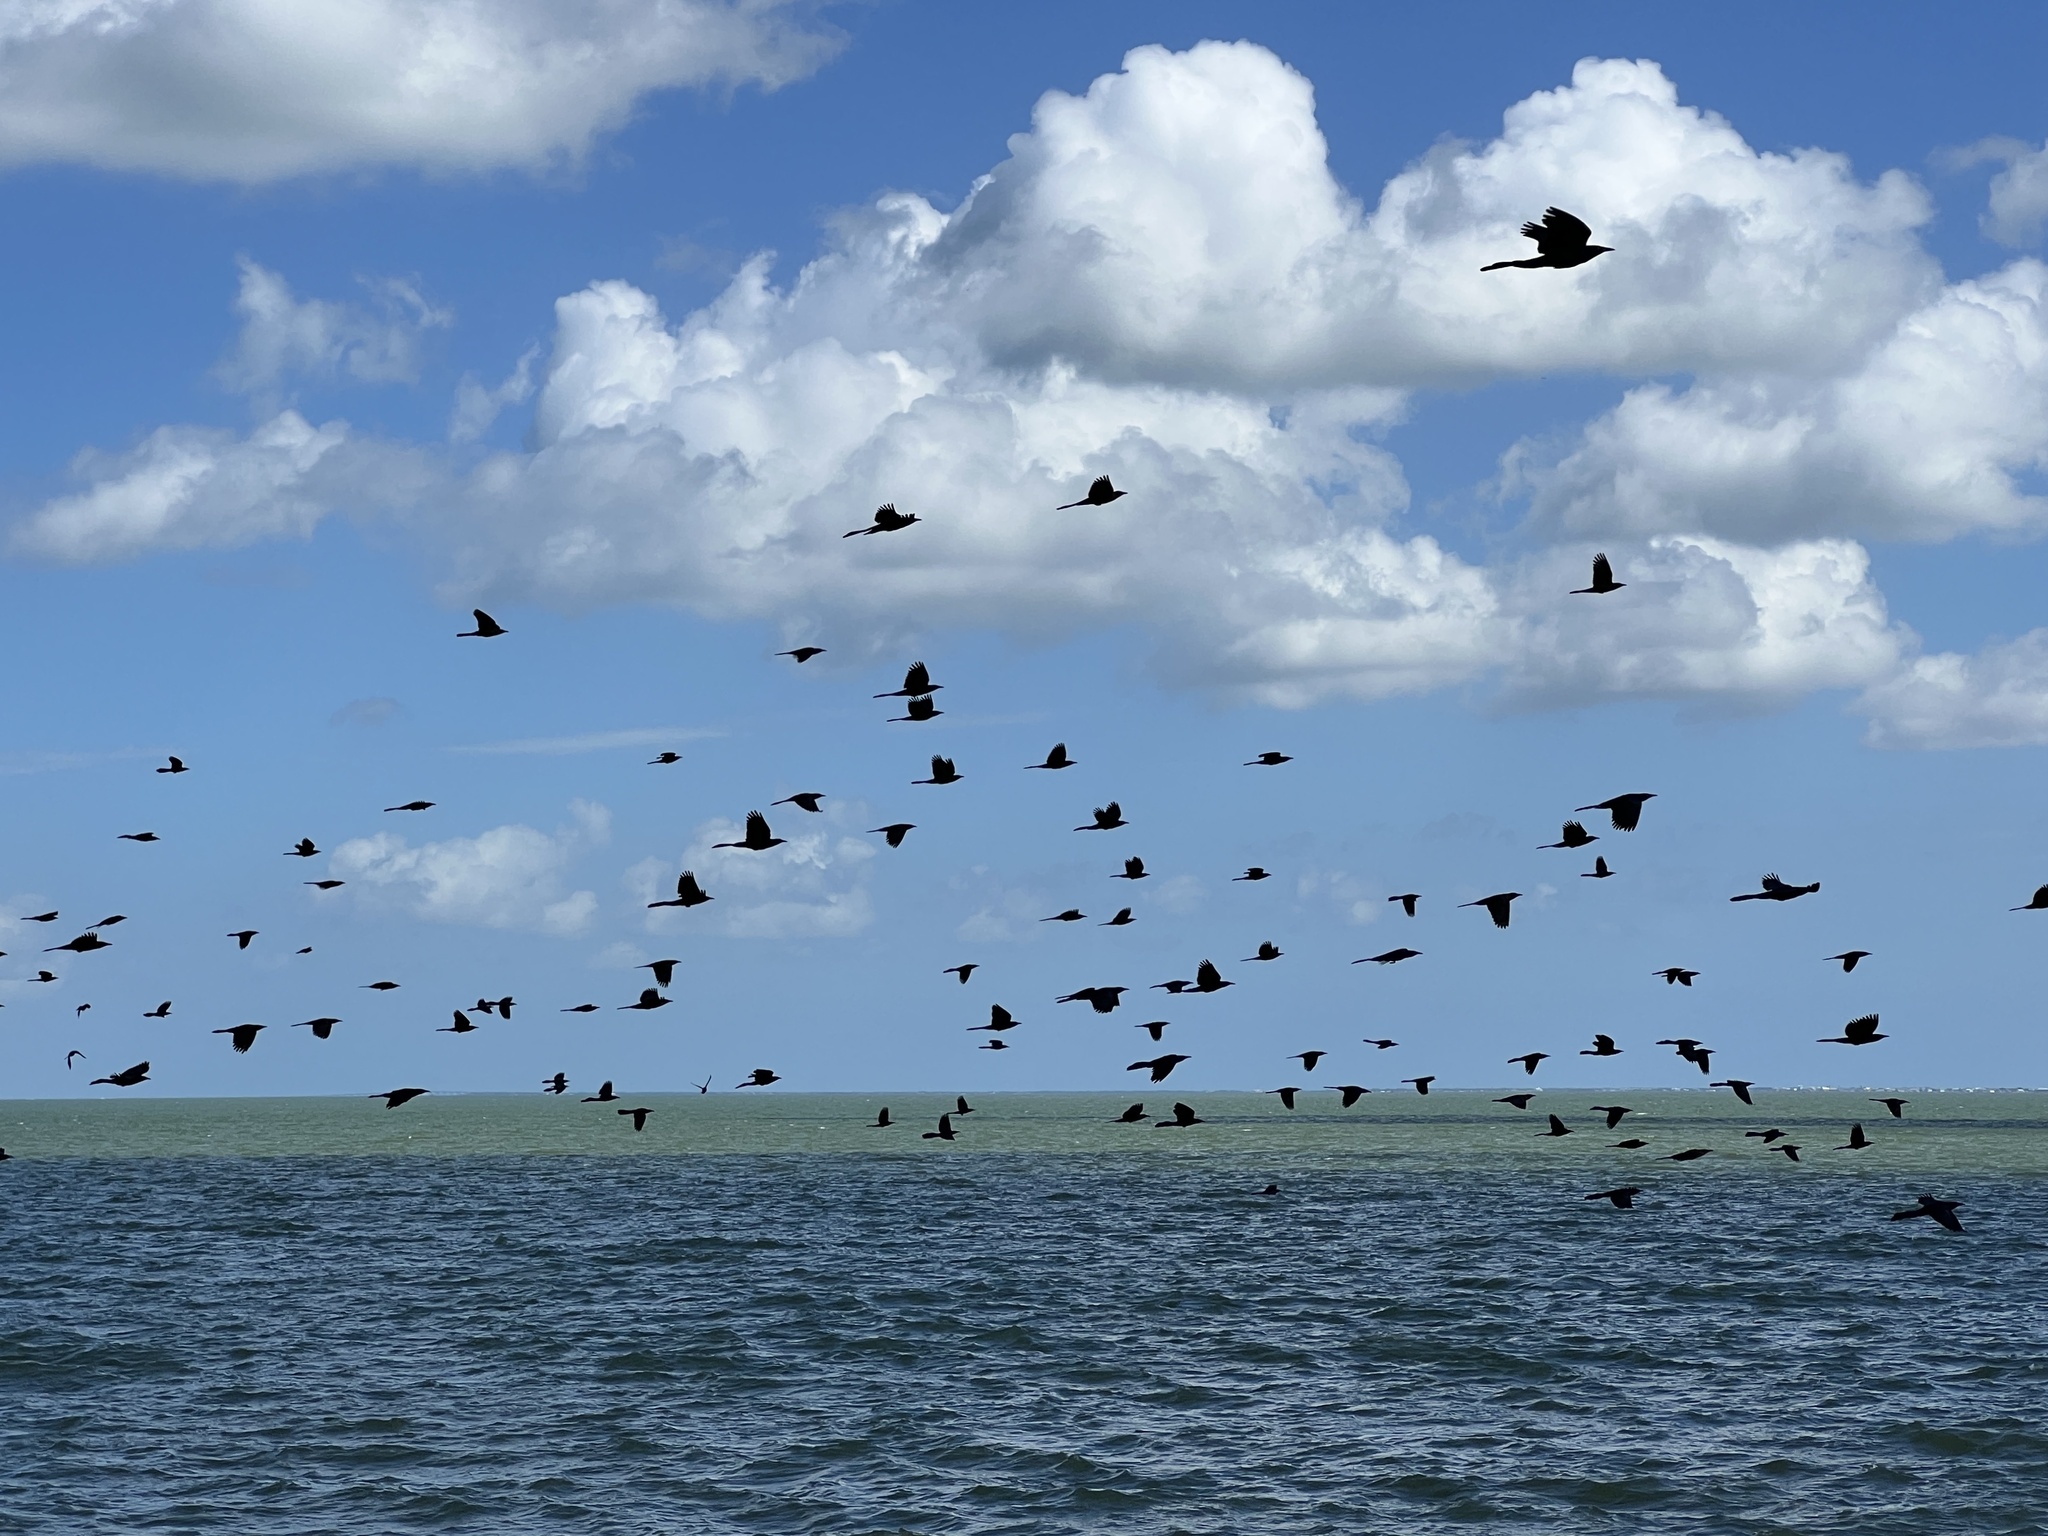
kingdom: Animalia
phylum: Chordata
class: Aves
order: Passeriformes
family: Icteridae
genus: Quiscalus
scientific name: Quiscalus mexicanus
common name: Great-tailed grackle
